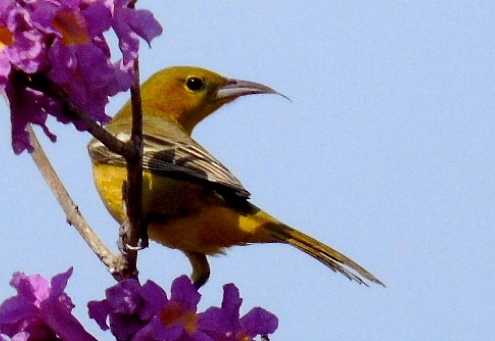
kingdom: Animalia
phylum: Chordata
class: Aves
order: Passeriformes
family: Icteridae
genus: Icterus
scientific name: Icterus cucullatus
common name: Hooded oriole
